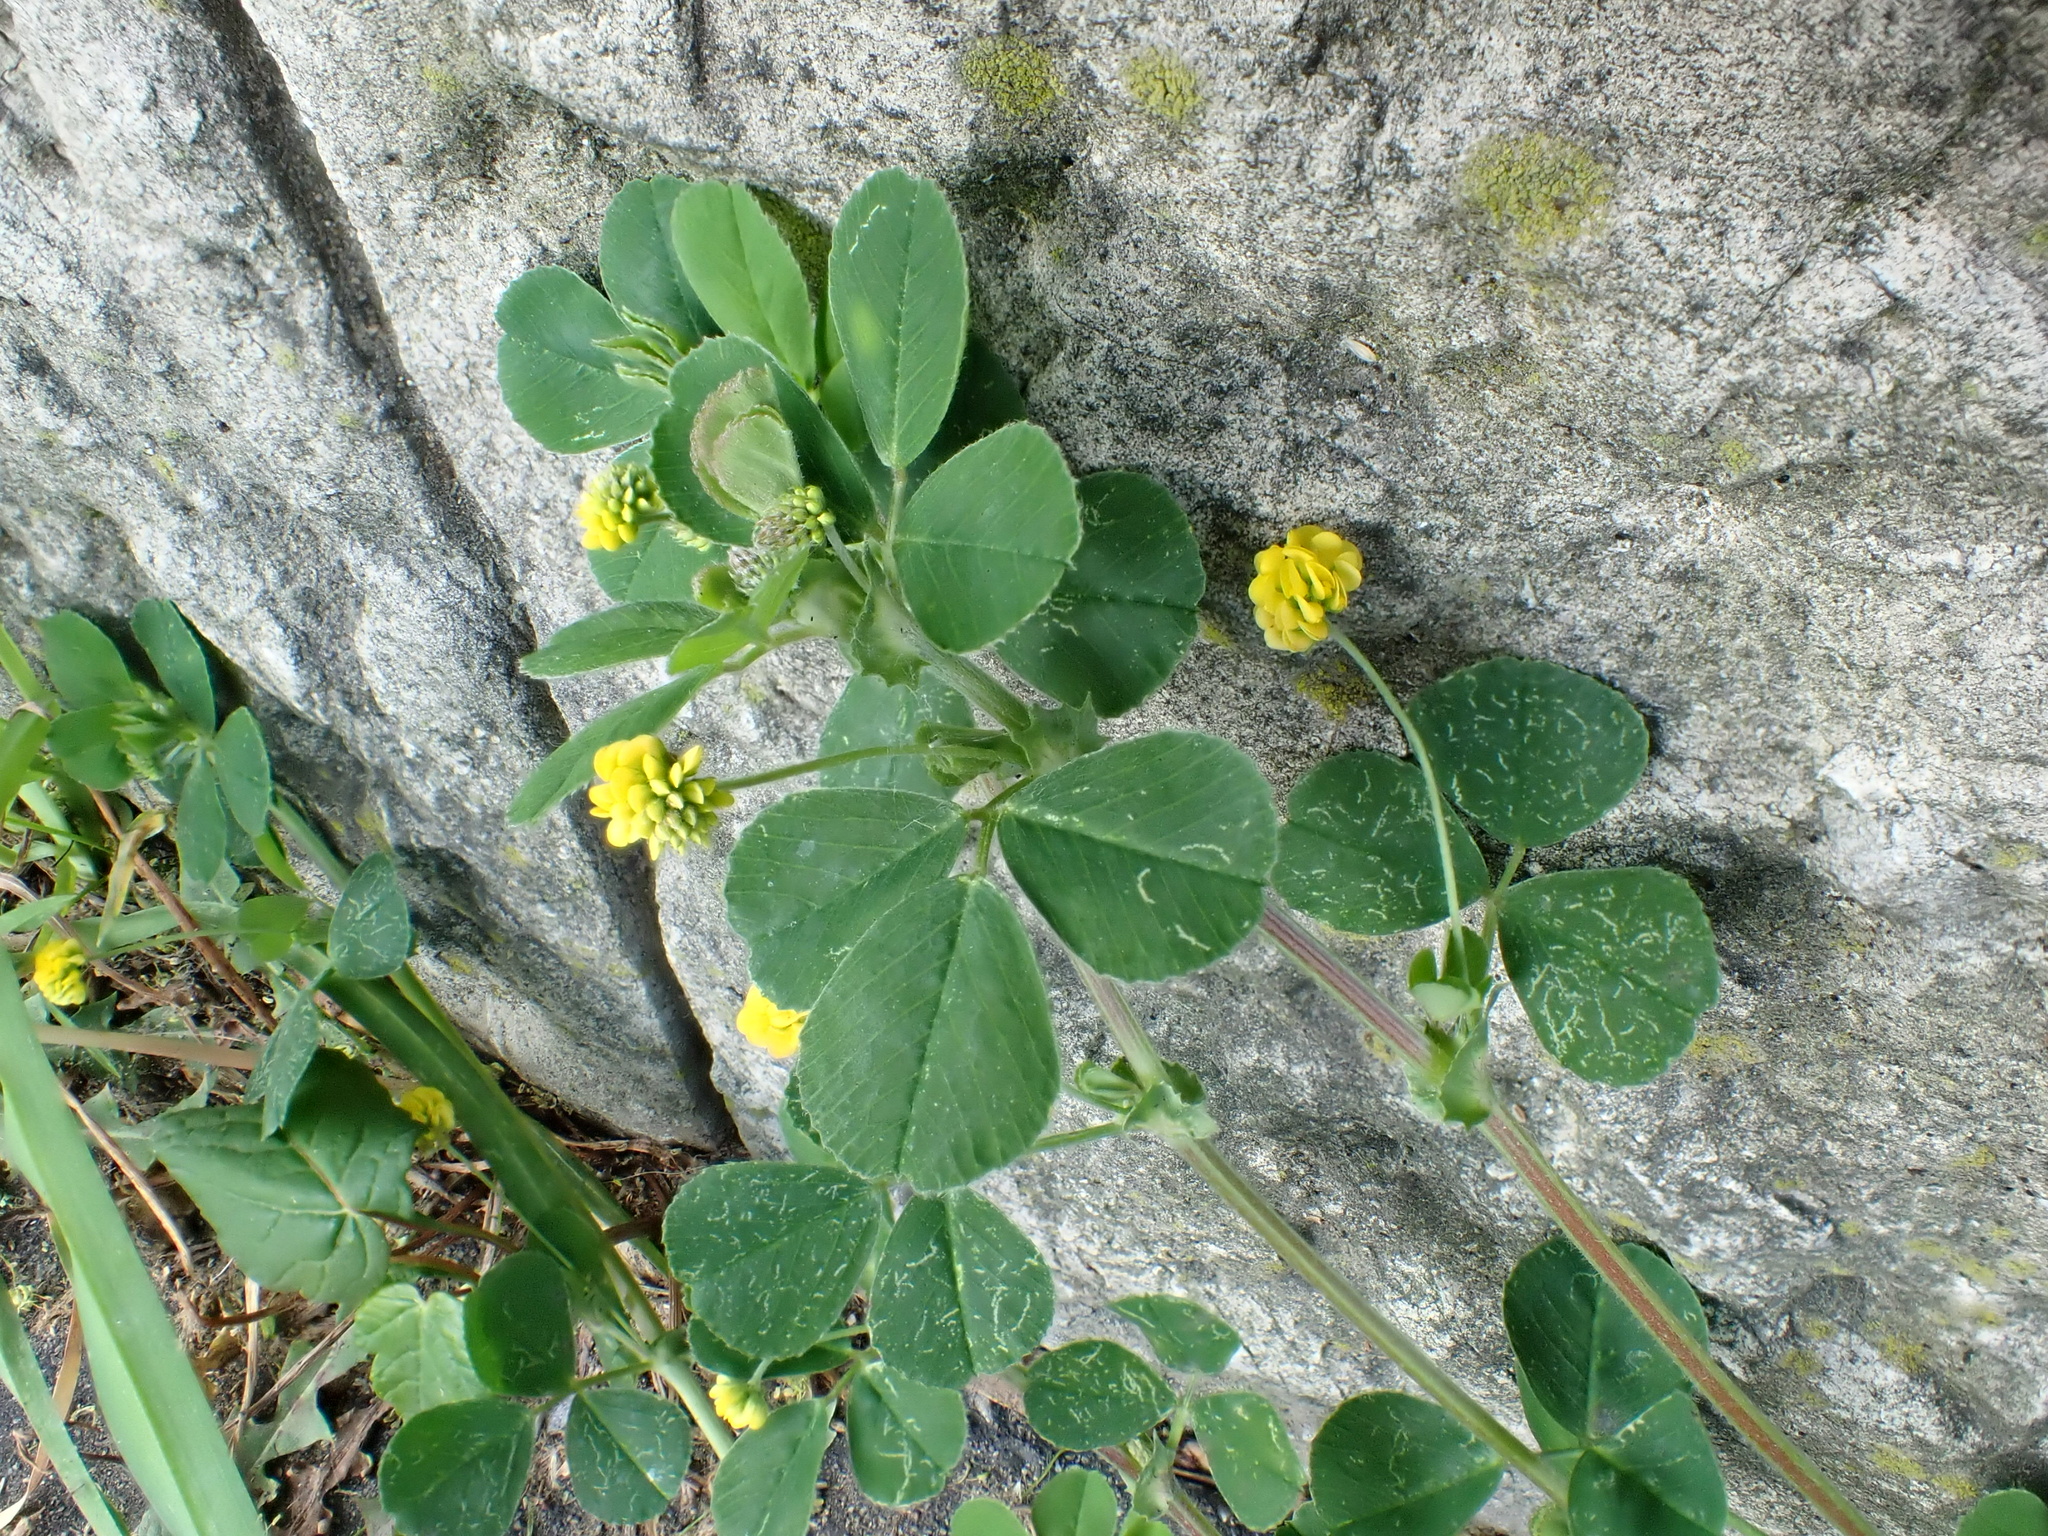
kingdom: Plantae
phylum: Tracheophyta
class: Magnoliopsida
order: Fabales
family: Fabaceae
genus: Medicago
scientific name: Medicago lupulina
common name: Black medick
